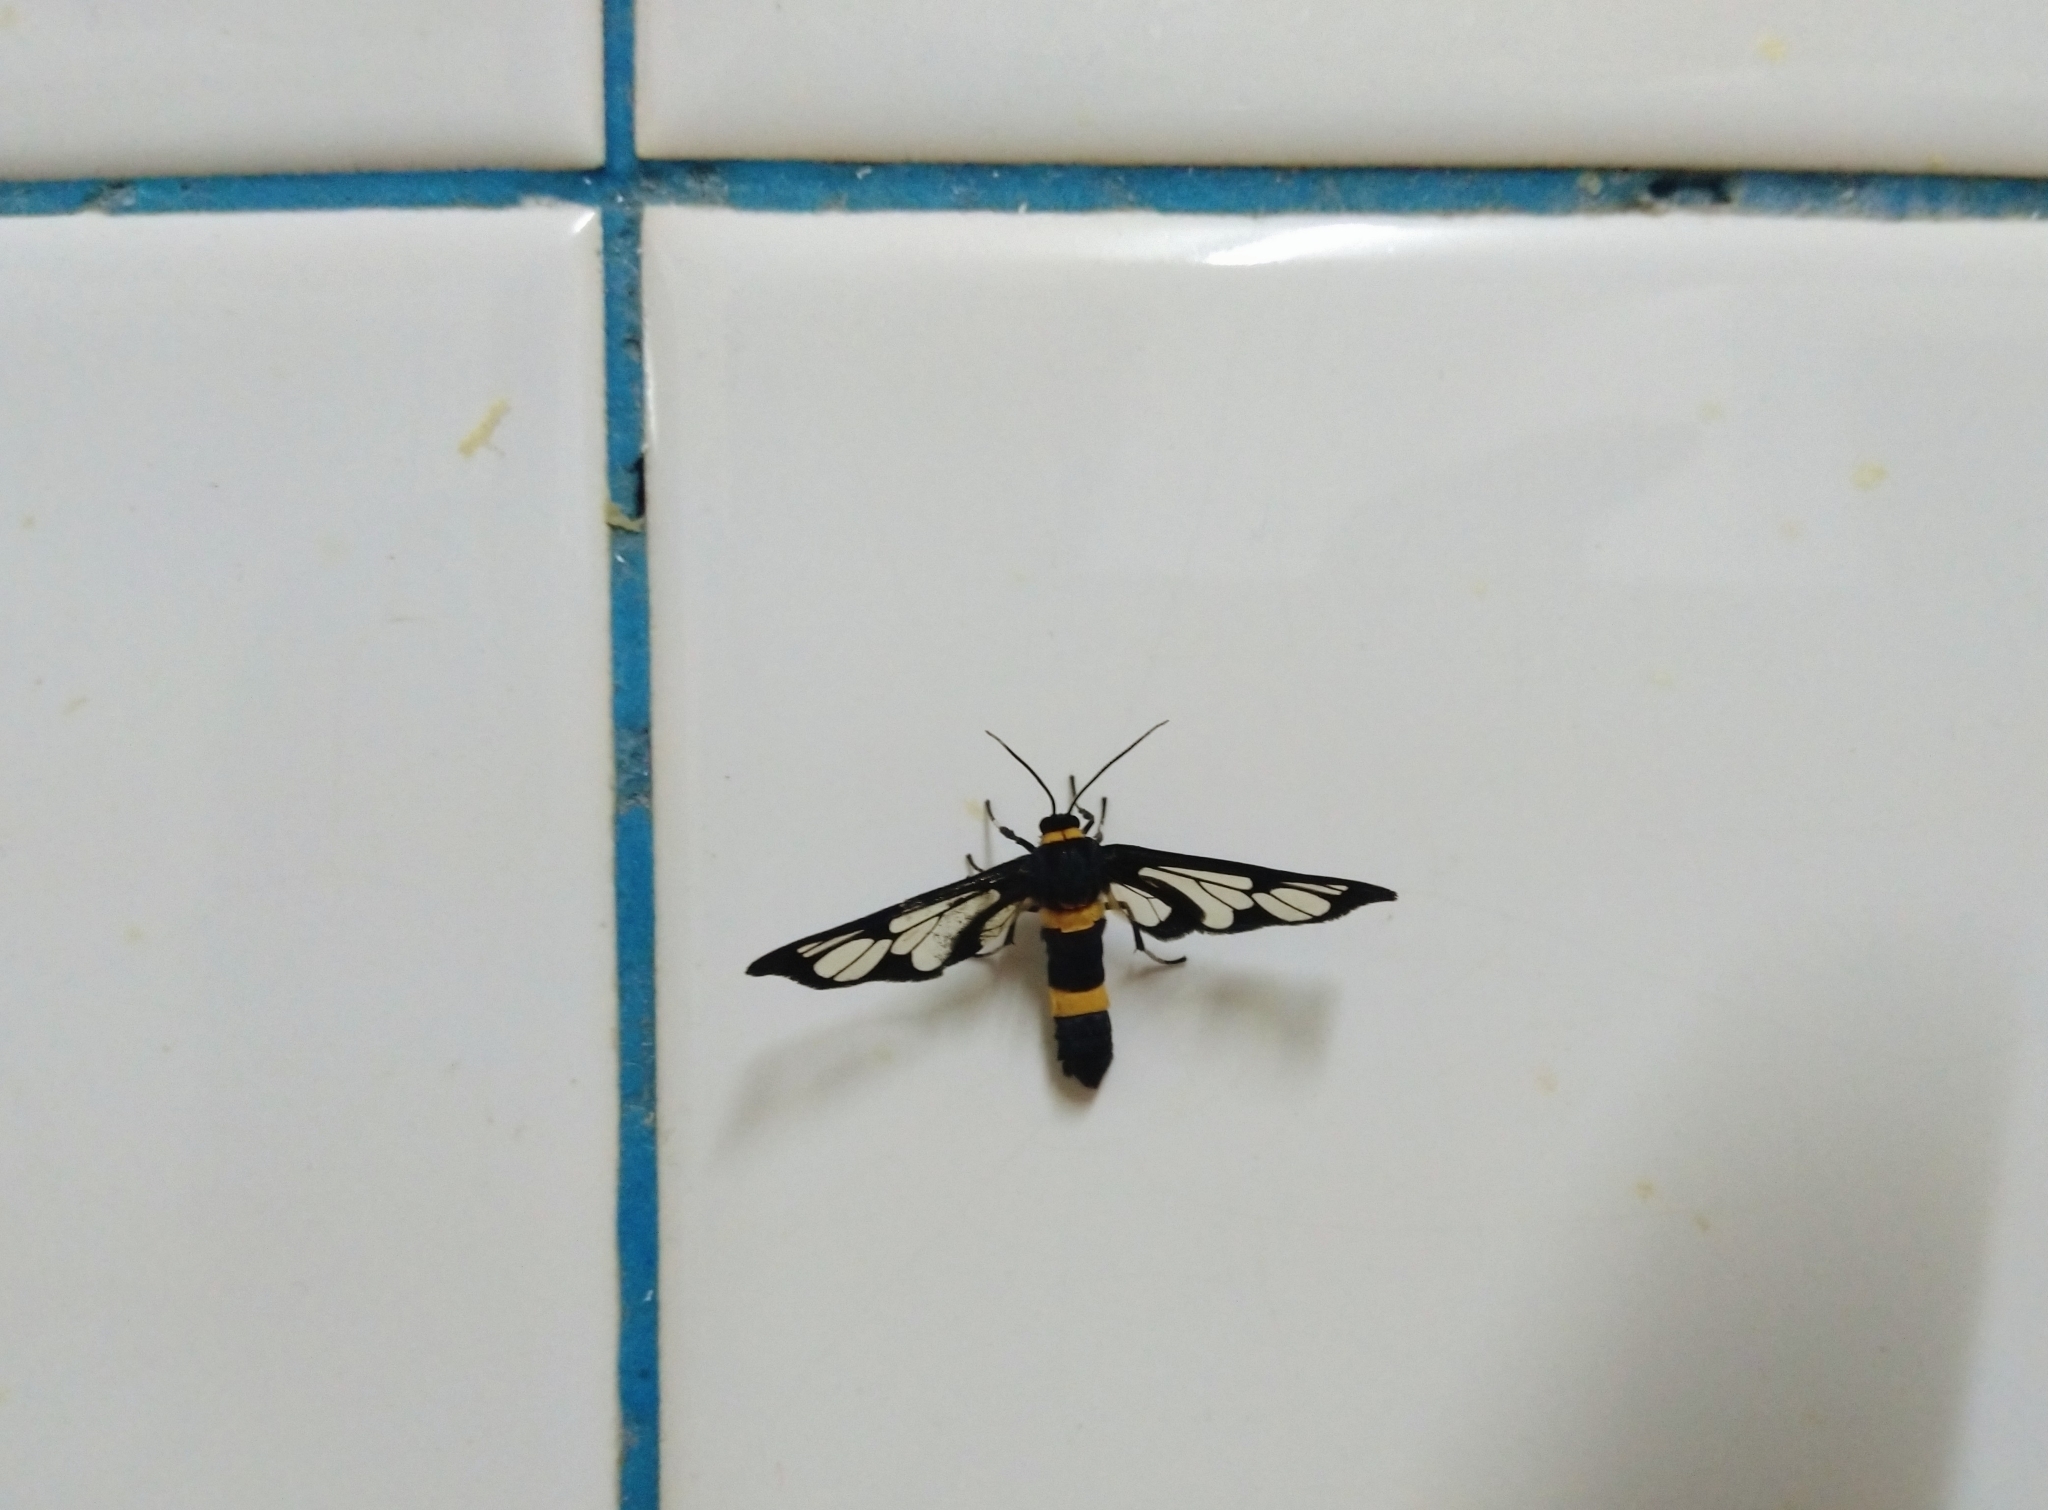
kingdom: Animalia
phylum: Arthropoda
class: Insecta
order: Lepidoptera
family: Erebidae
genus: Syntomoides
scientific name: Syntomoides imaon
